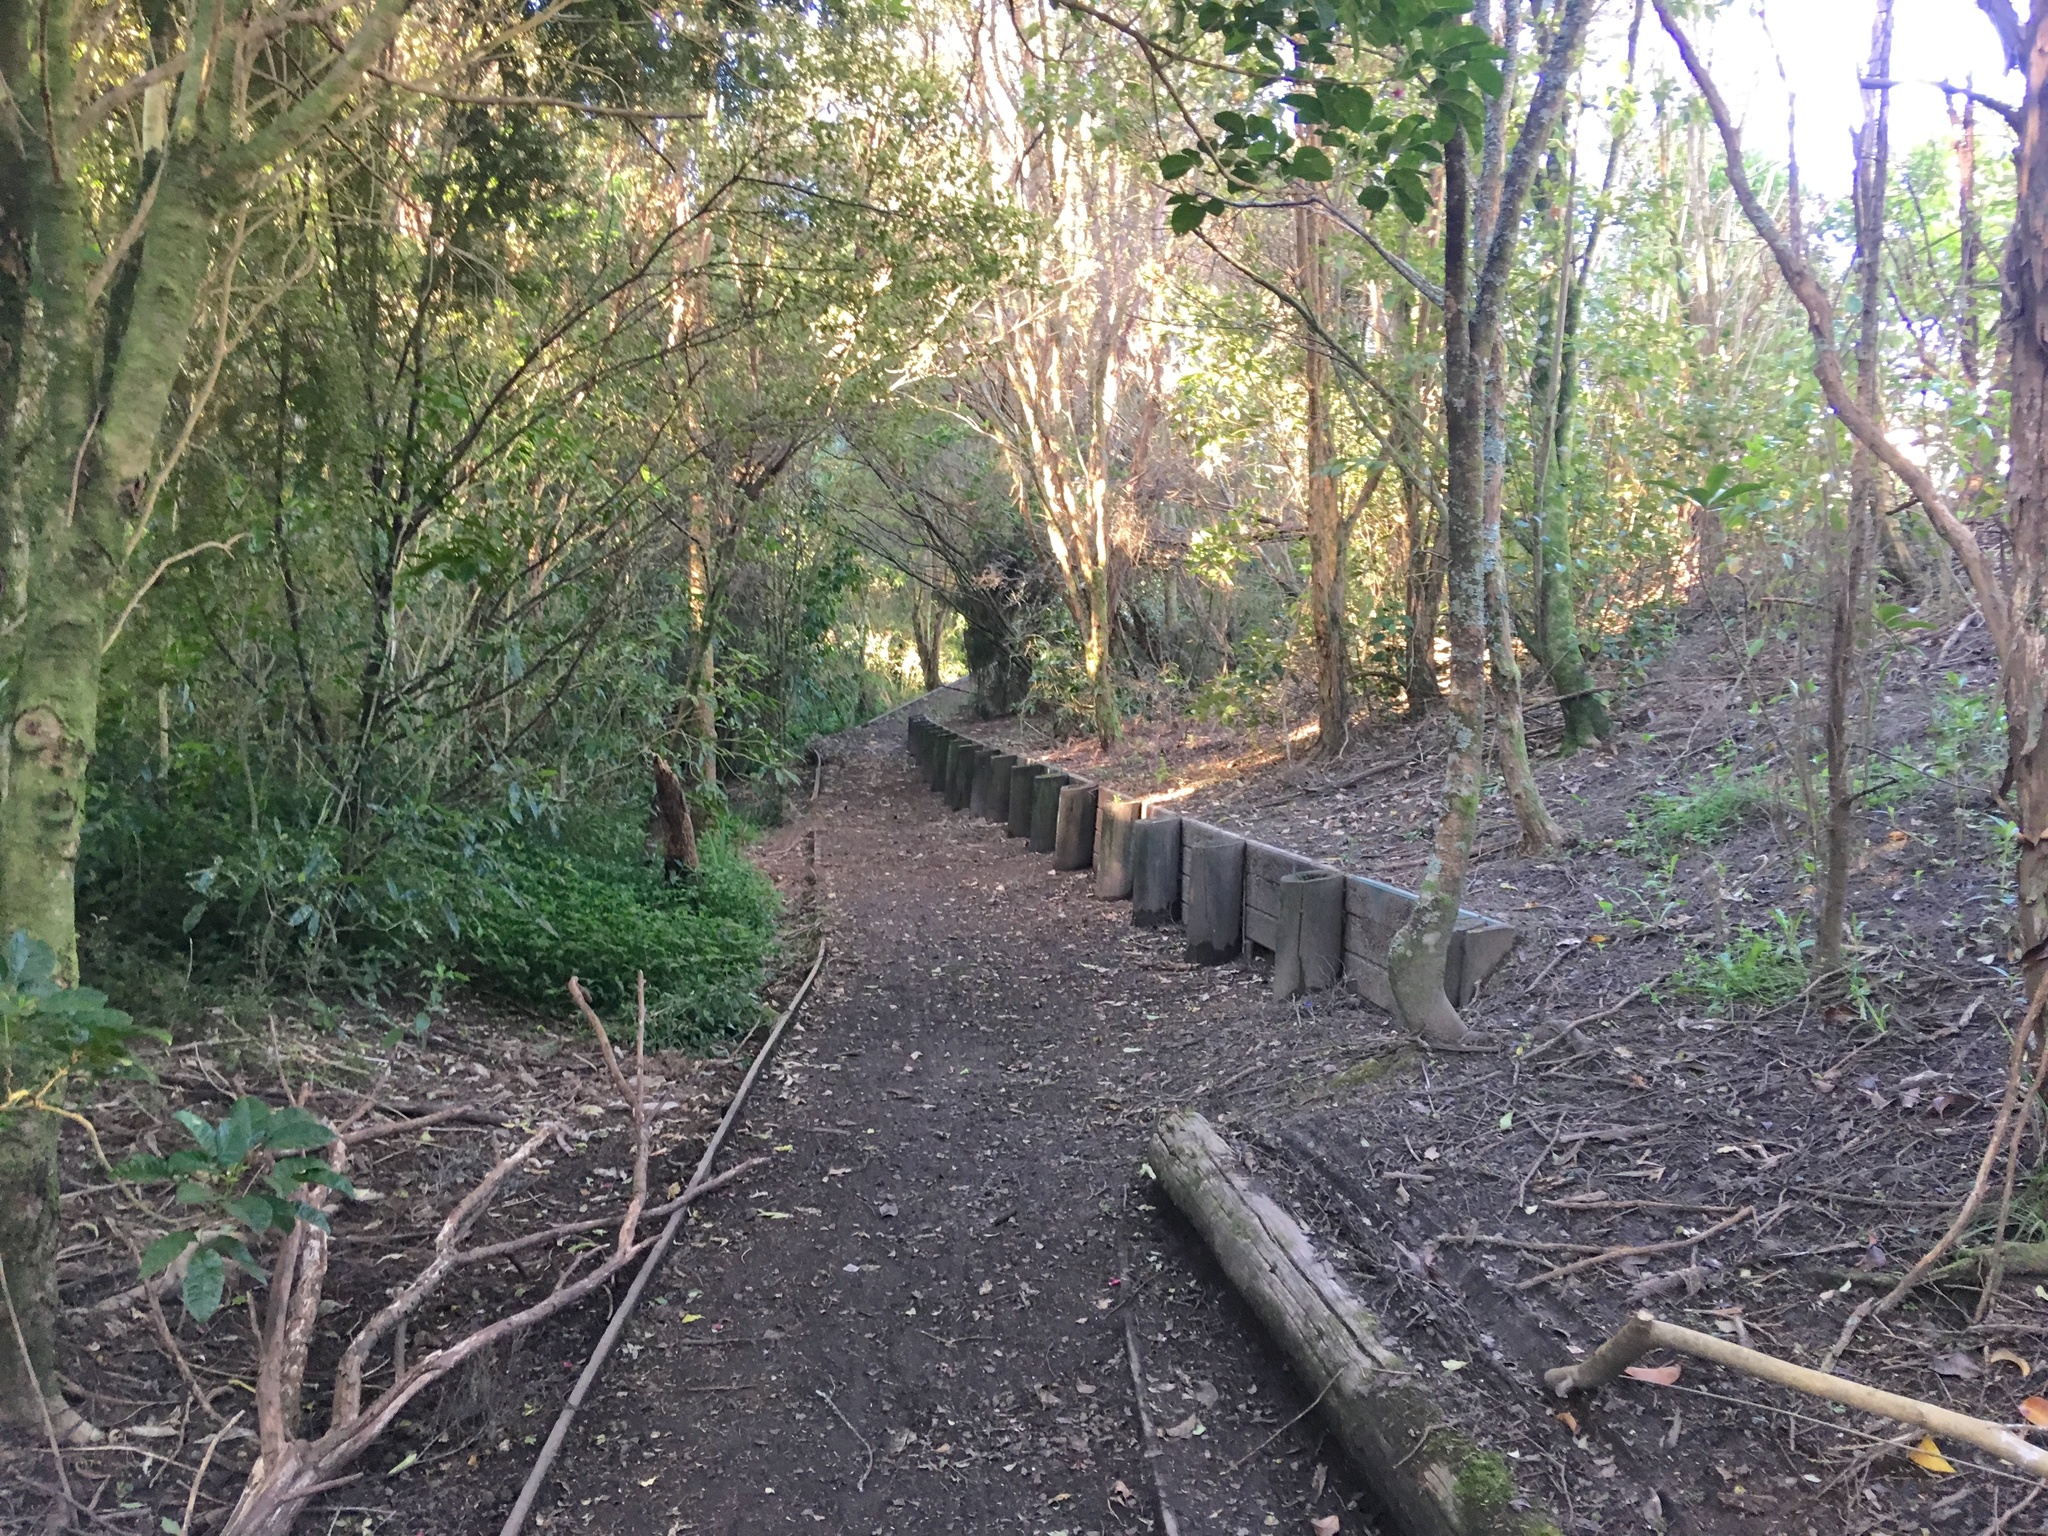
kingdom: Plantae
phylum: Tracheophyta
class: Liliopsida
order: Commelinales
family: Commelinaceae
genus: Tradescantia
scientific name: Tradescantia fluminensis
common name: Wandering-jew
